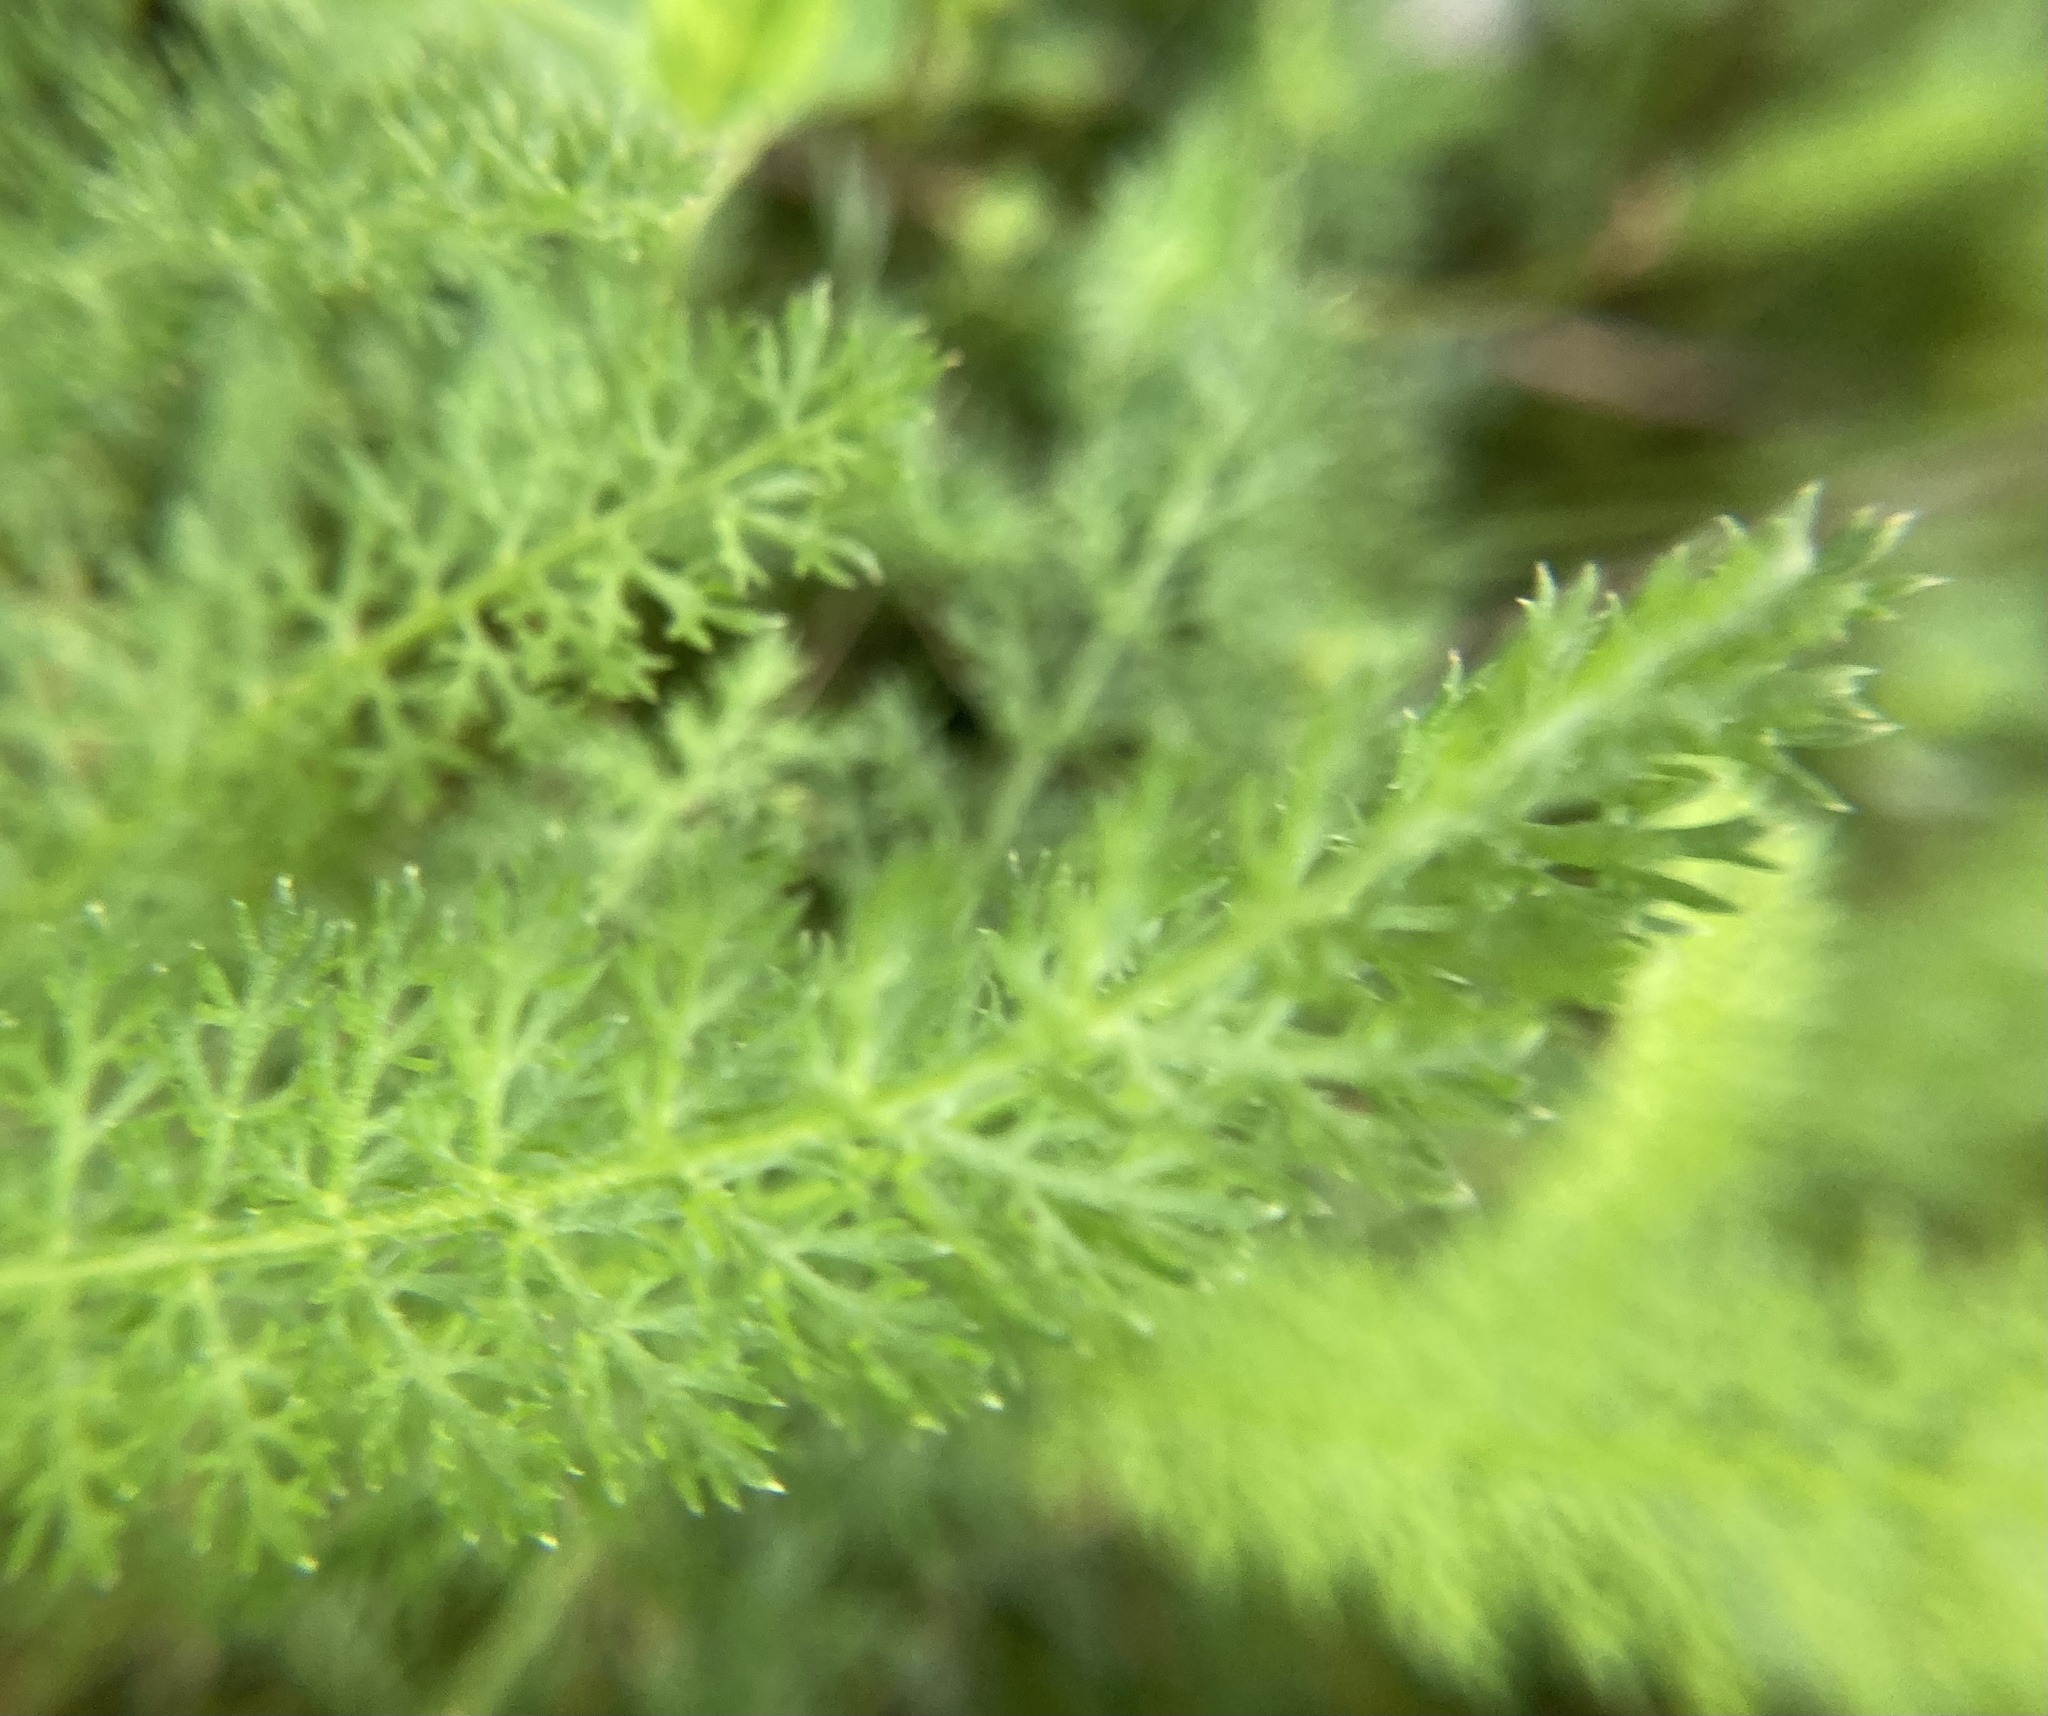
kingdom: Plantae
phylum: Tracheophyta
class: Magnoliopsida
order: Asterales
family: Asteraceae
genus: Achillea
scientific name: Achillea millefolium
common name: Yarrow
